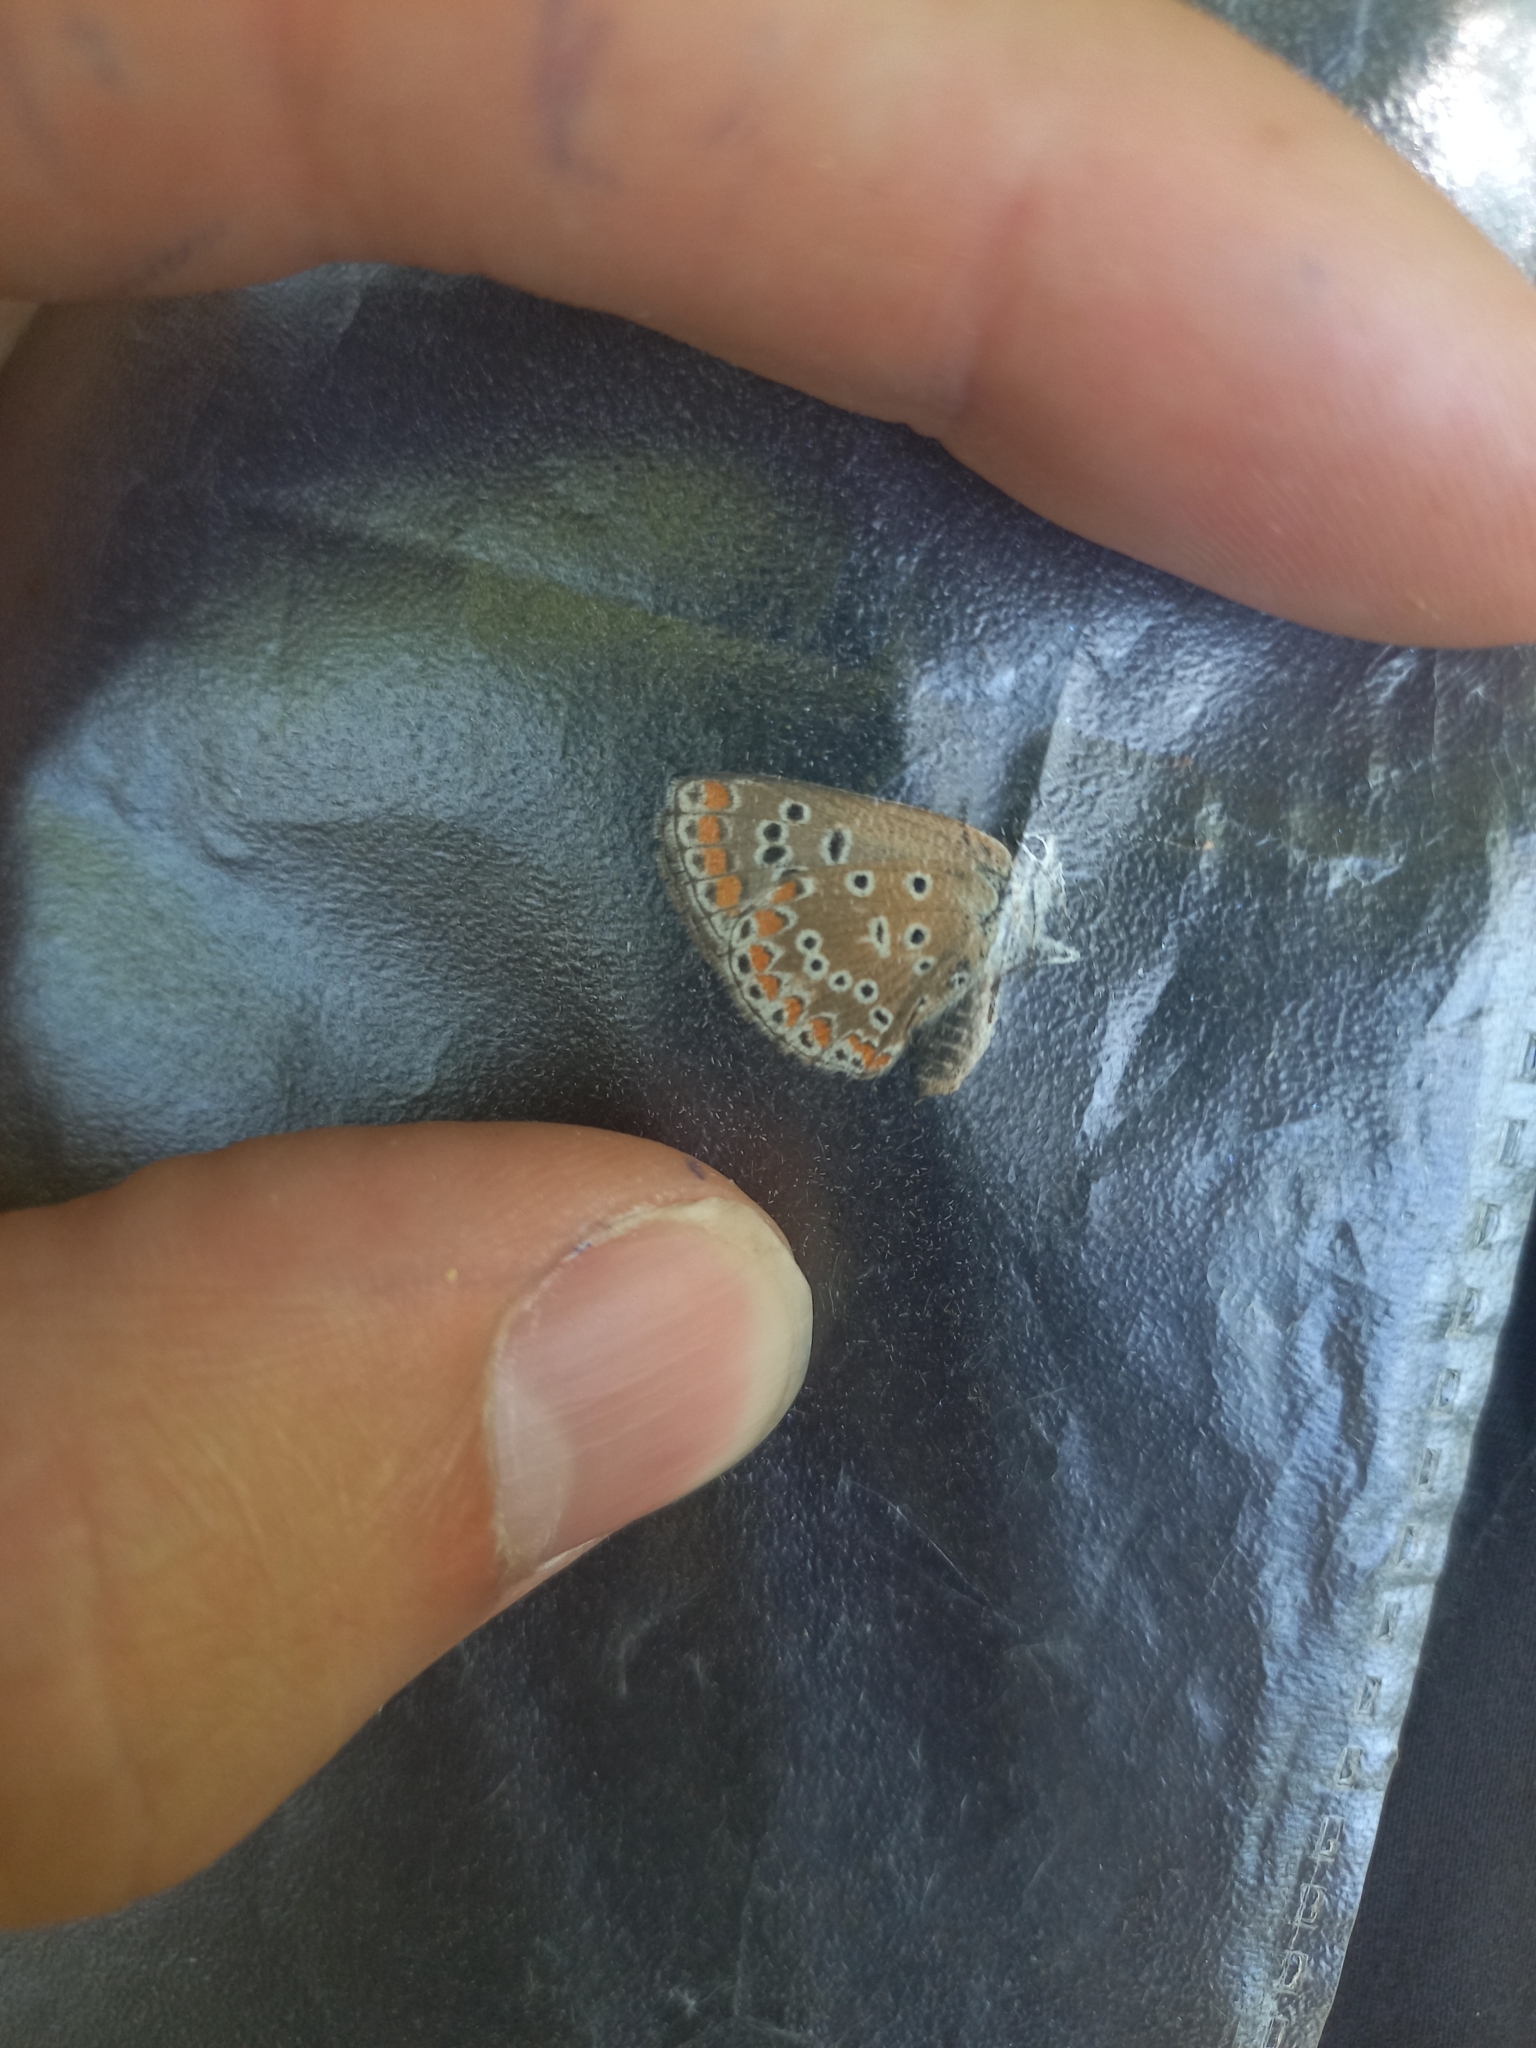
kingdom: Animalia
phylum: Arthropoda
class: Insecta
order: Lepidoptera
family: Lycaenidae
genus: Aricia
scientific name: Aricia agestis
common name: Brown argus
